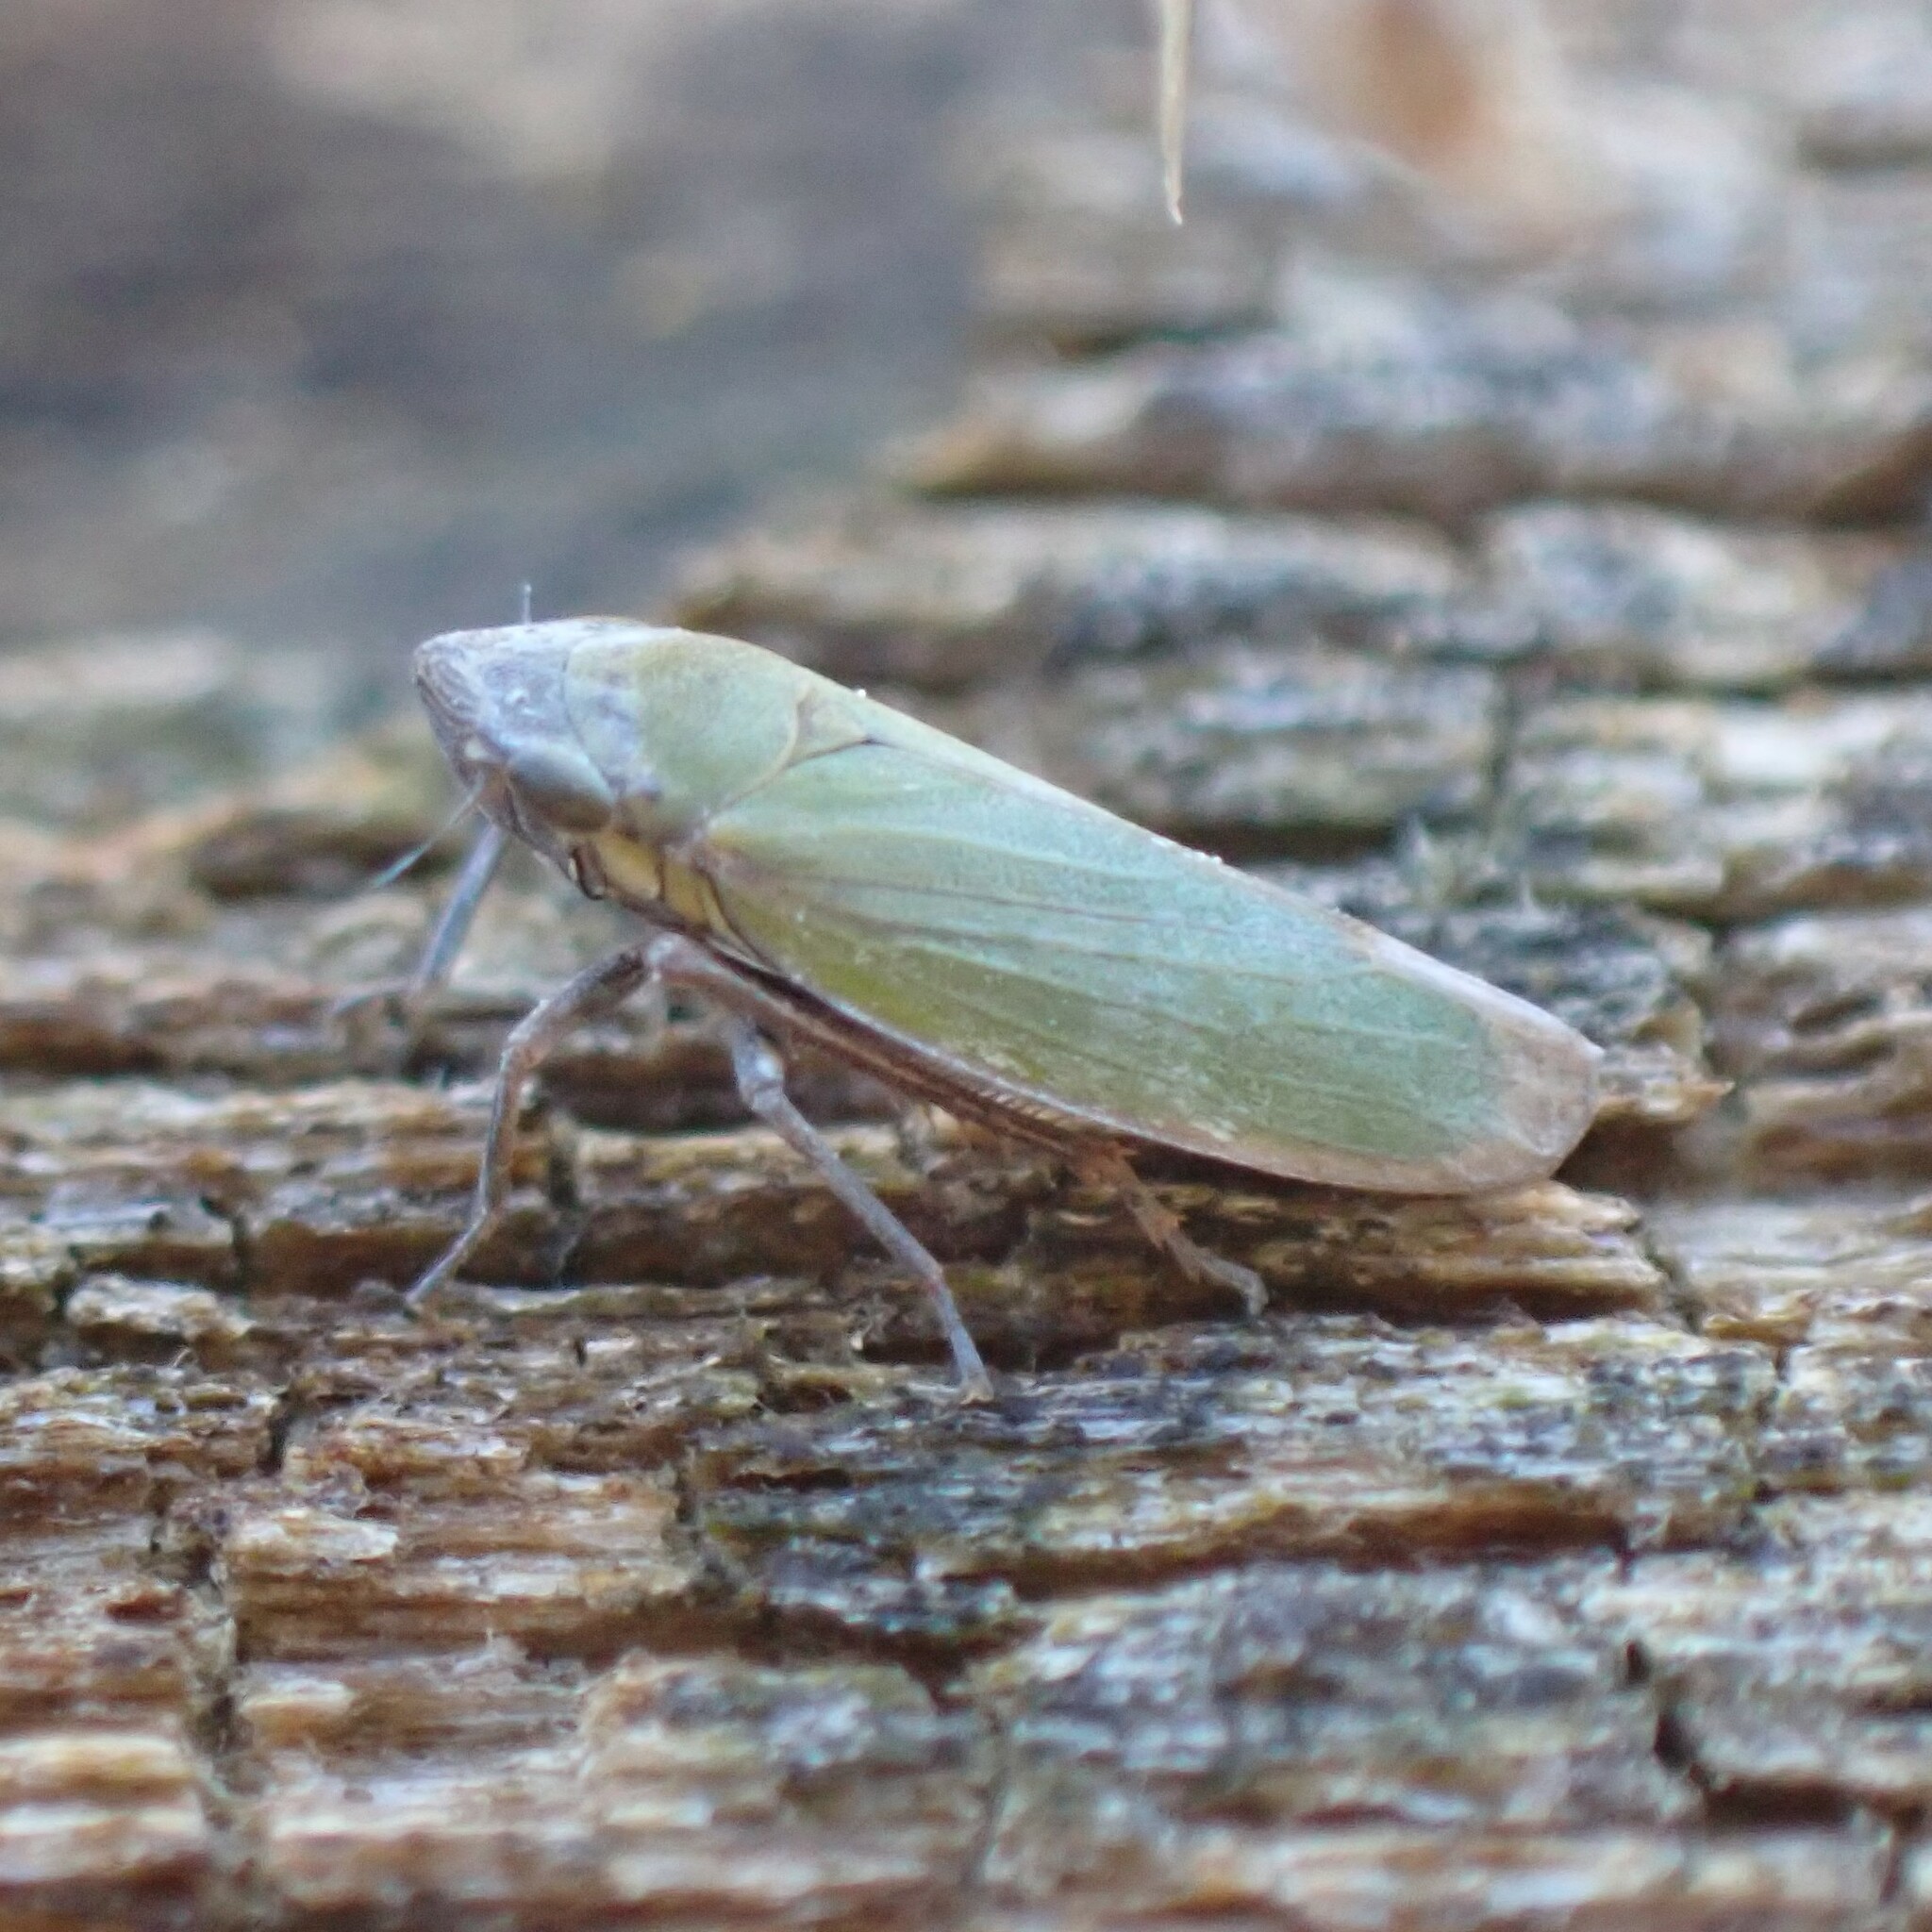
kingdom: Animalia
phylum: Arthropoda
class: Insecta
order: Hemiptera
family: Cicadellidae
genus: Helochara
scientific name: Helochara delta
